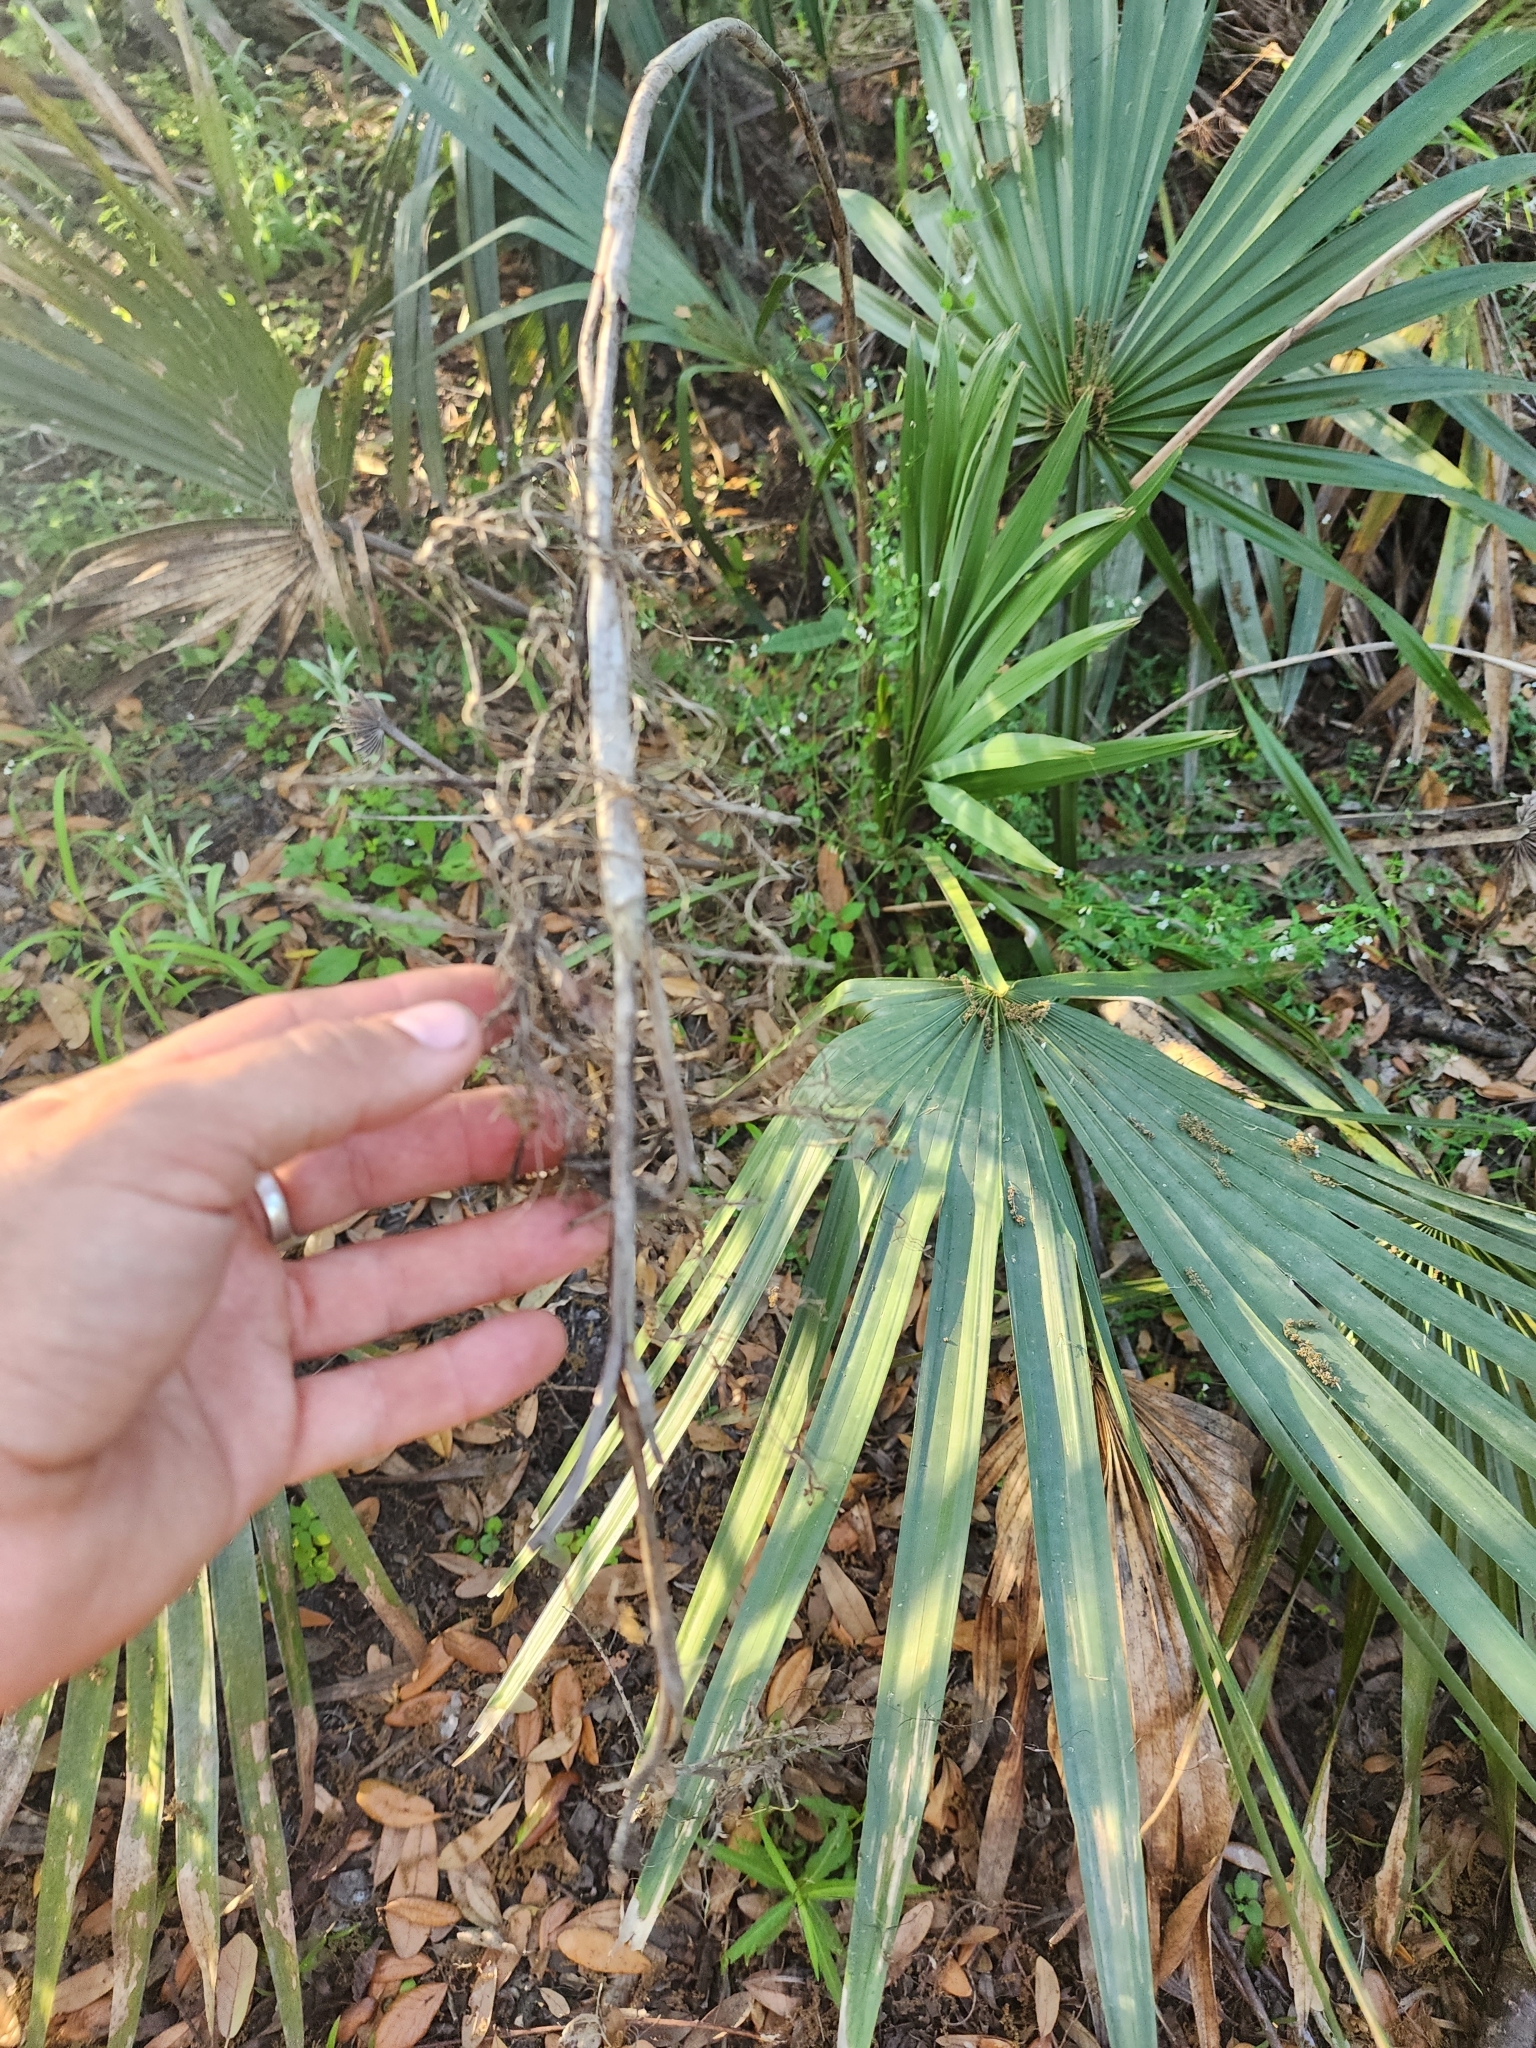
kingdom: Plantae
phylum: Tracheophyta
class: Liliopsida
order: Arecales
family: Arecaceae
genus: Sabal
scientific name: Sabal minor
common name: Dwarf palmetto
